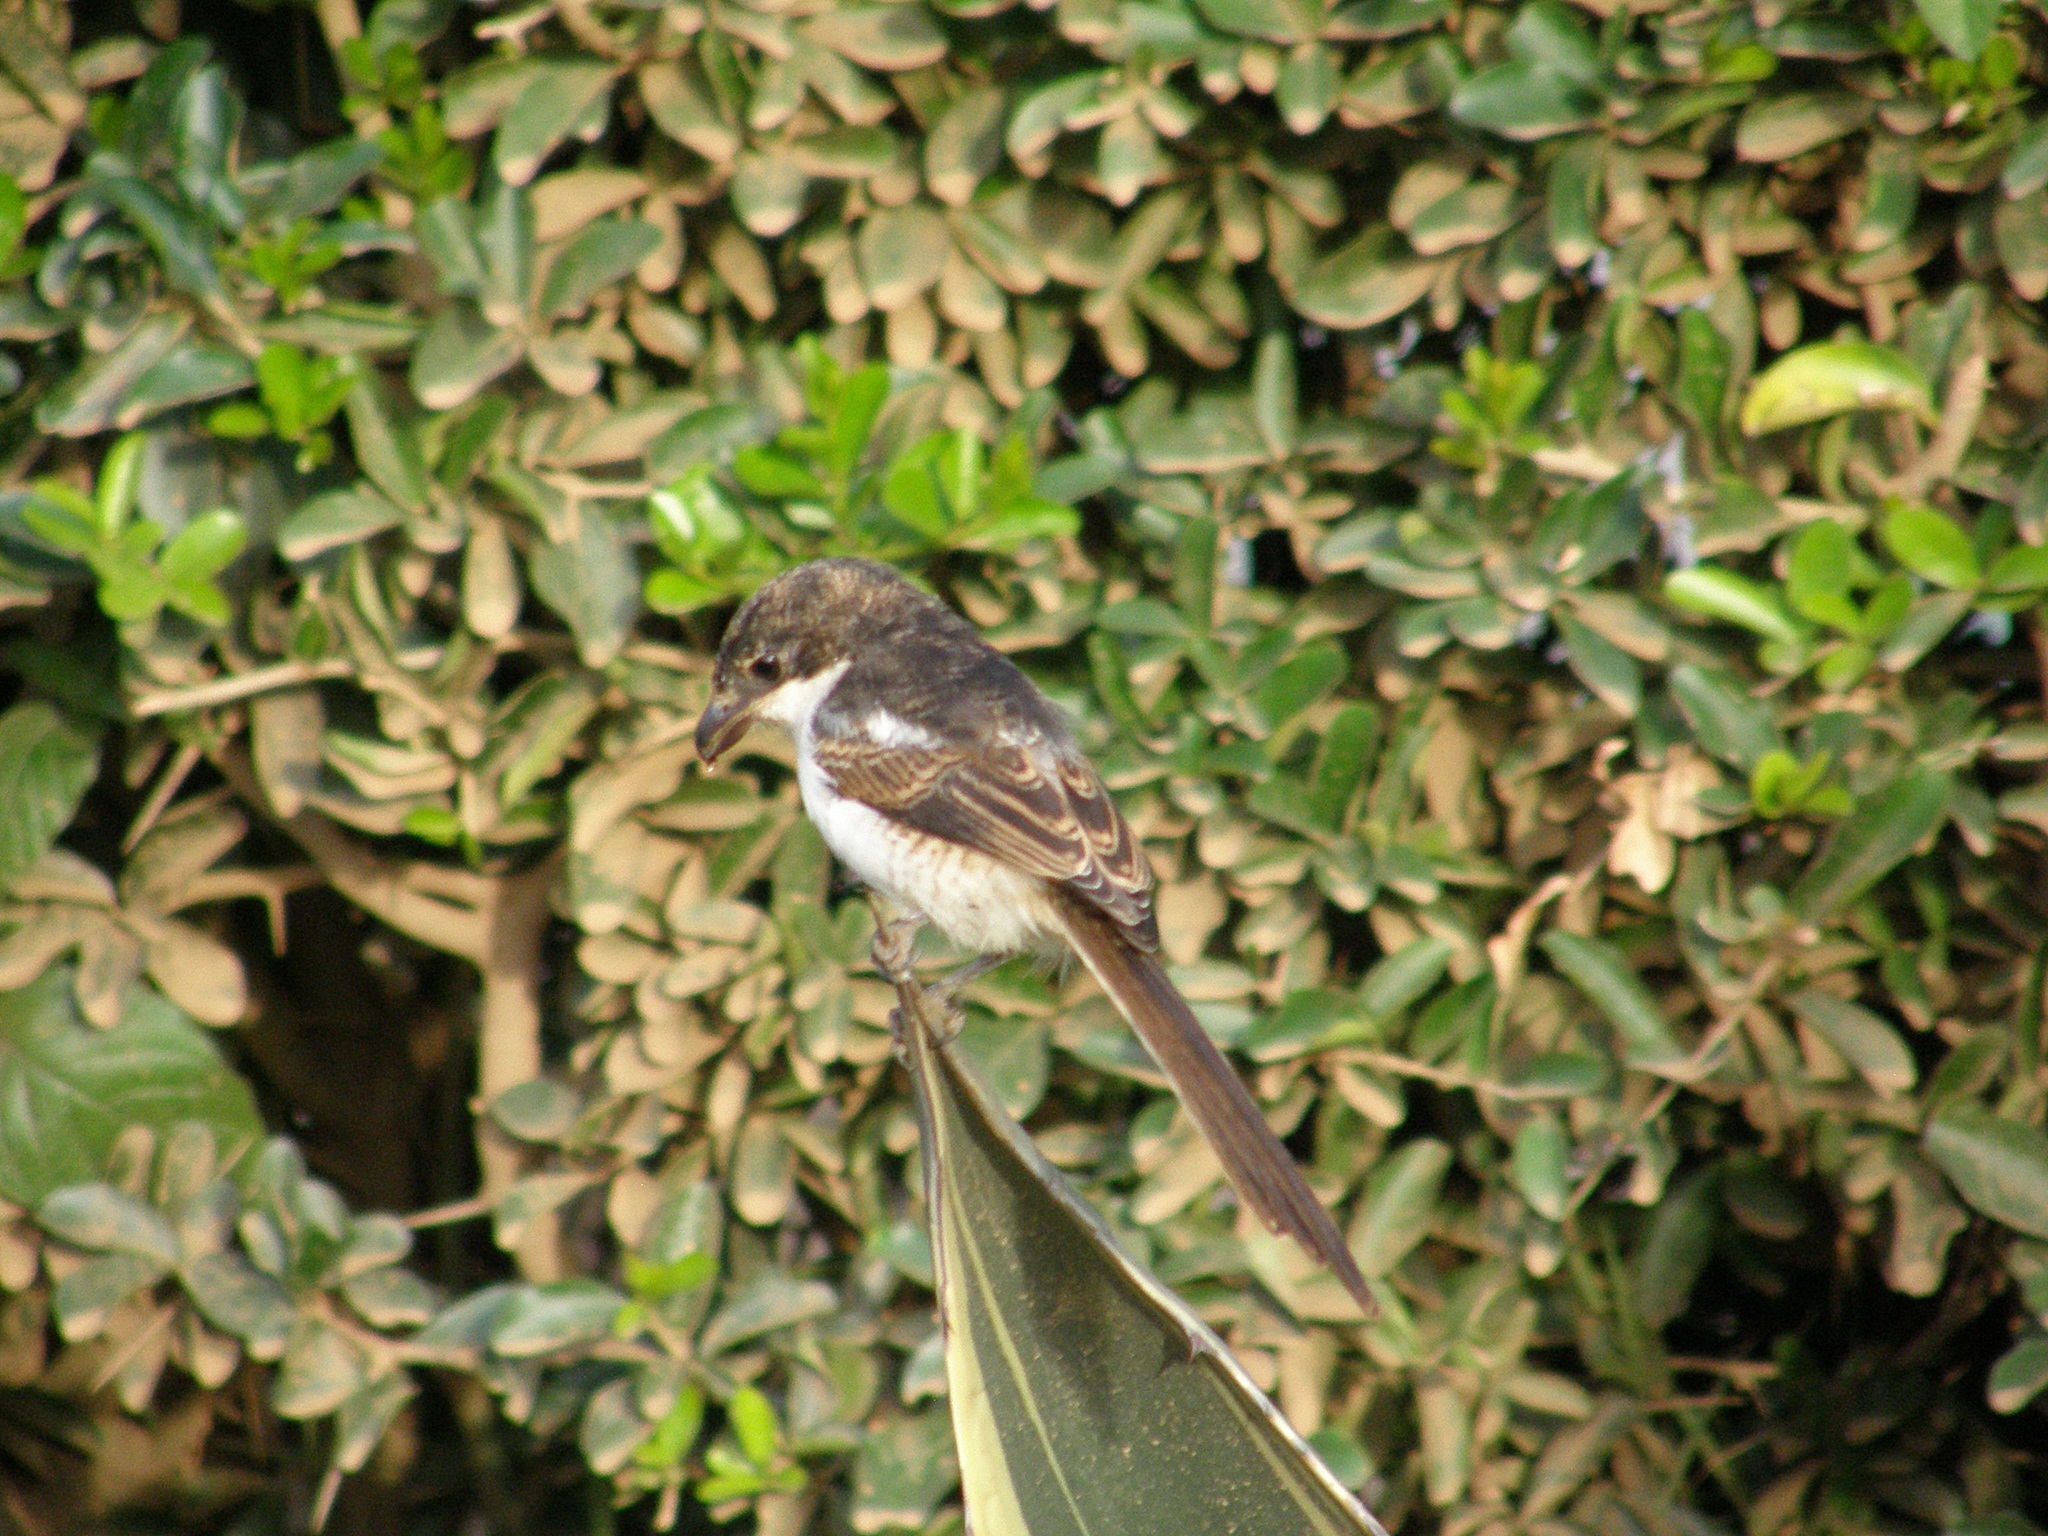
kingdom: Animalia
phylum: Chordata
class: Aves
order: Passeriformes
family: Laniidae
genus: Lanius
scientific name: Lanius humeralis
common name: Northern fiscal
